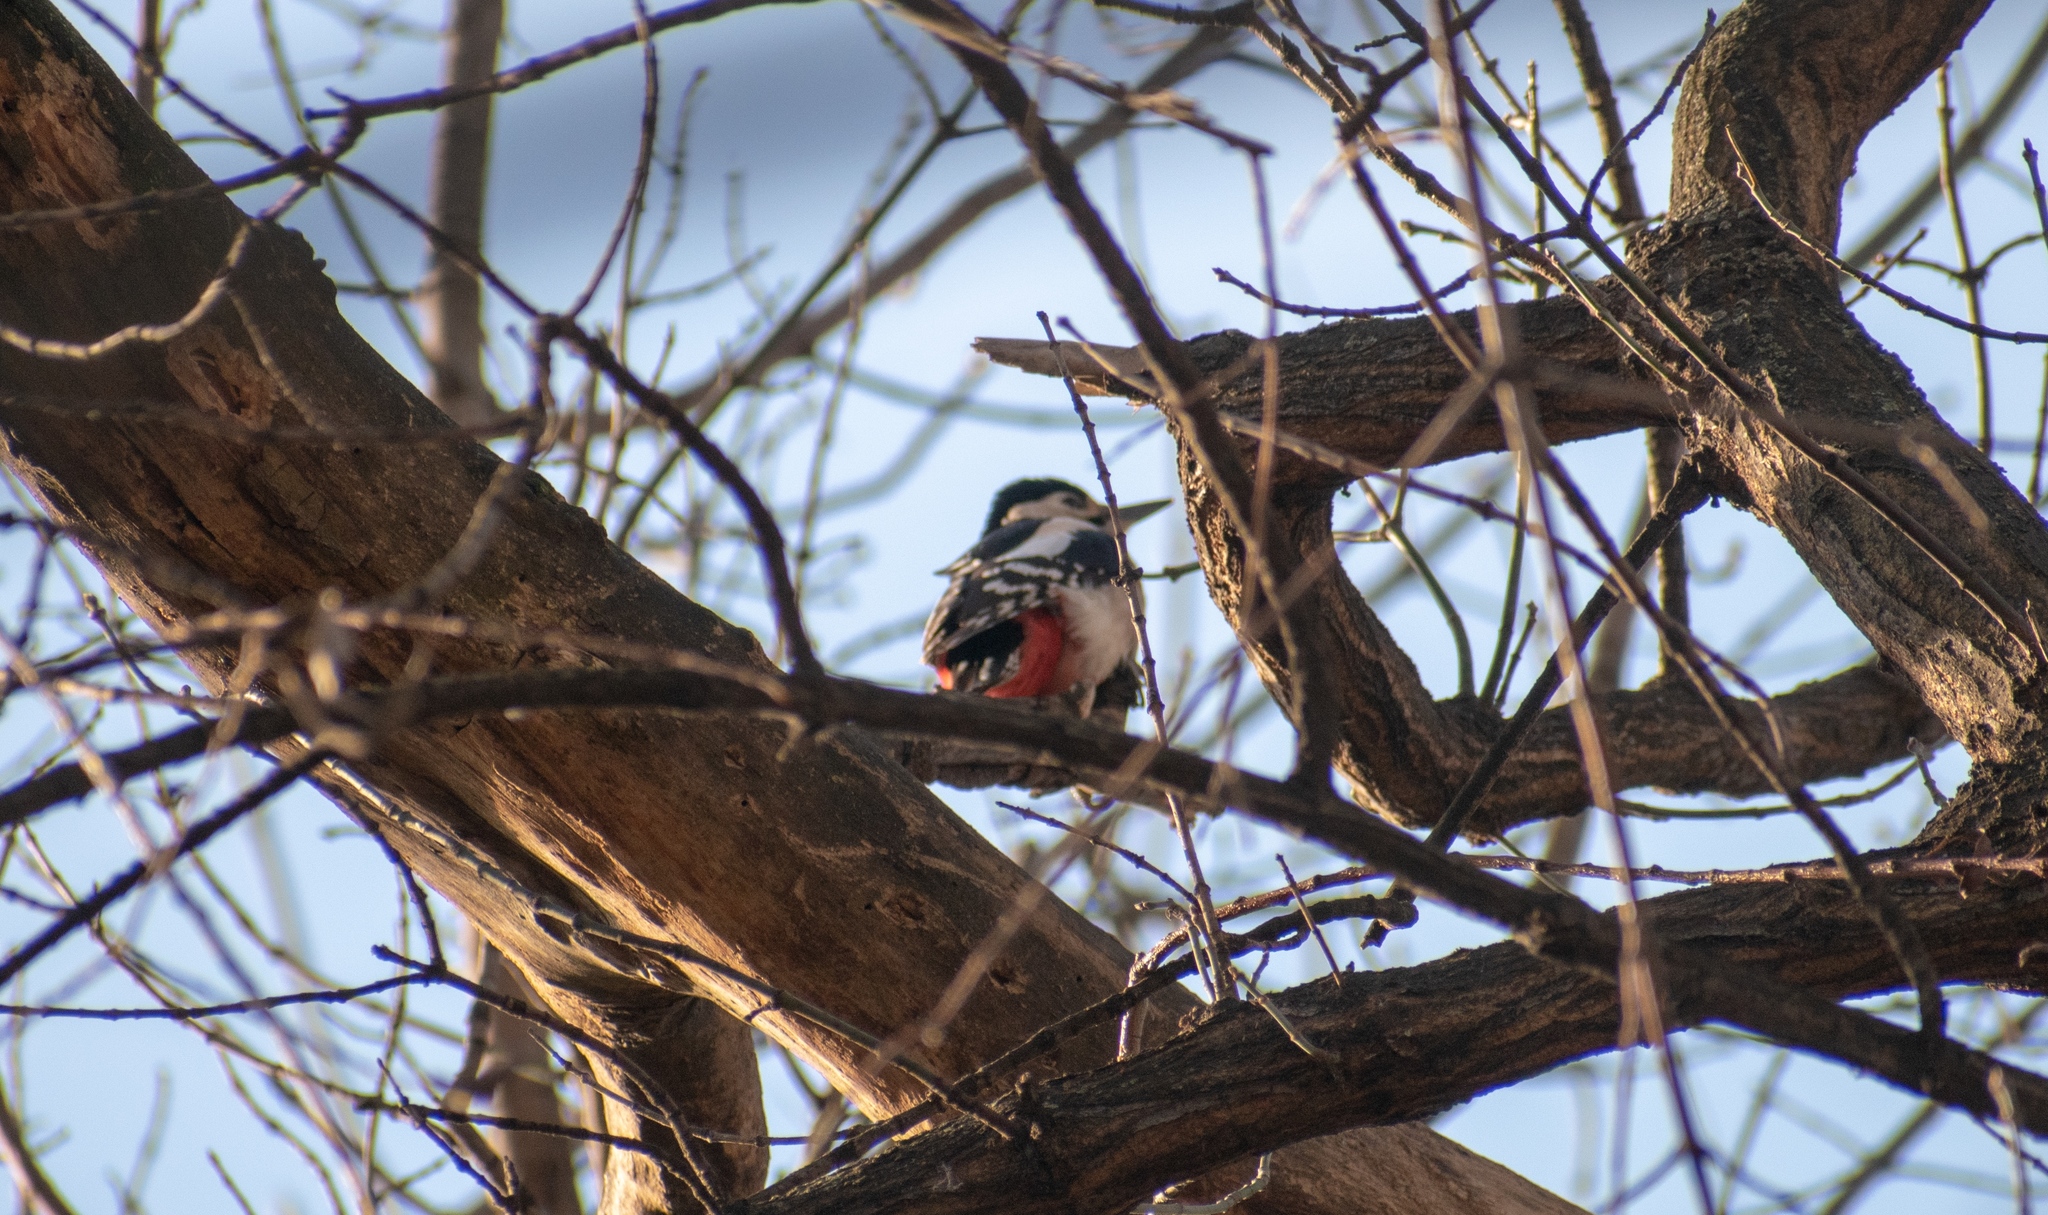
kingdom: Animalia
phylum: Chordata
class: Aves
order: Piciformes
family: Picidae
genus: Dendrocopos
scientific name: Dendrocopos major
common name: Great spotted woodpecker
